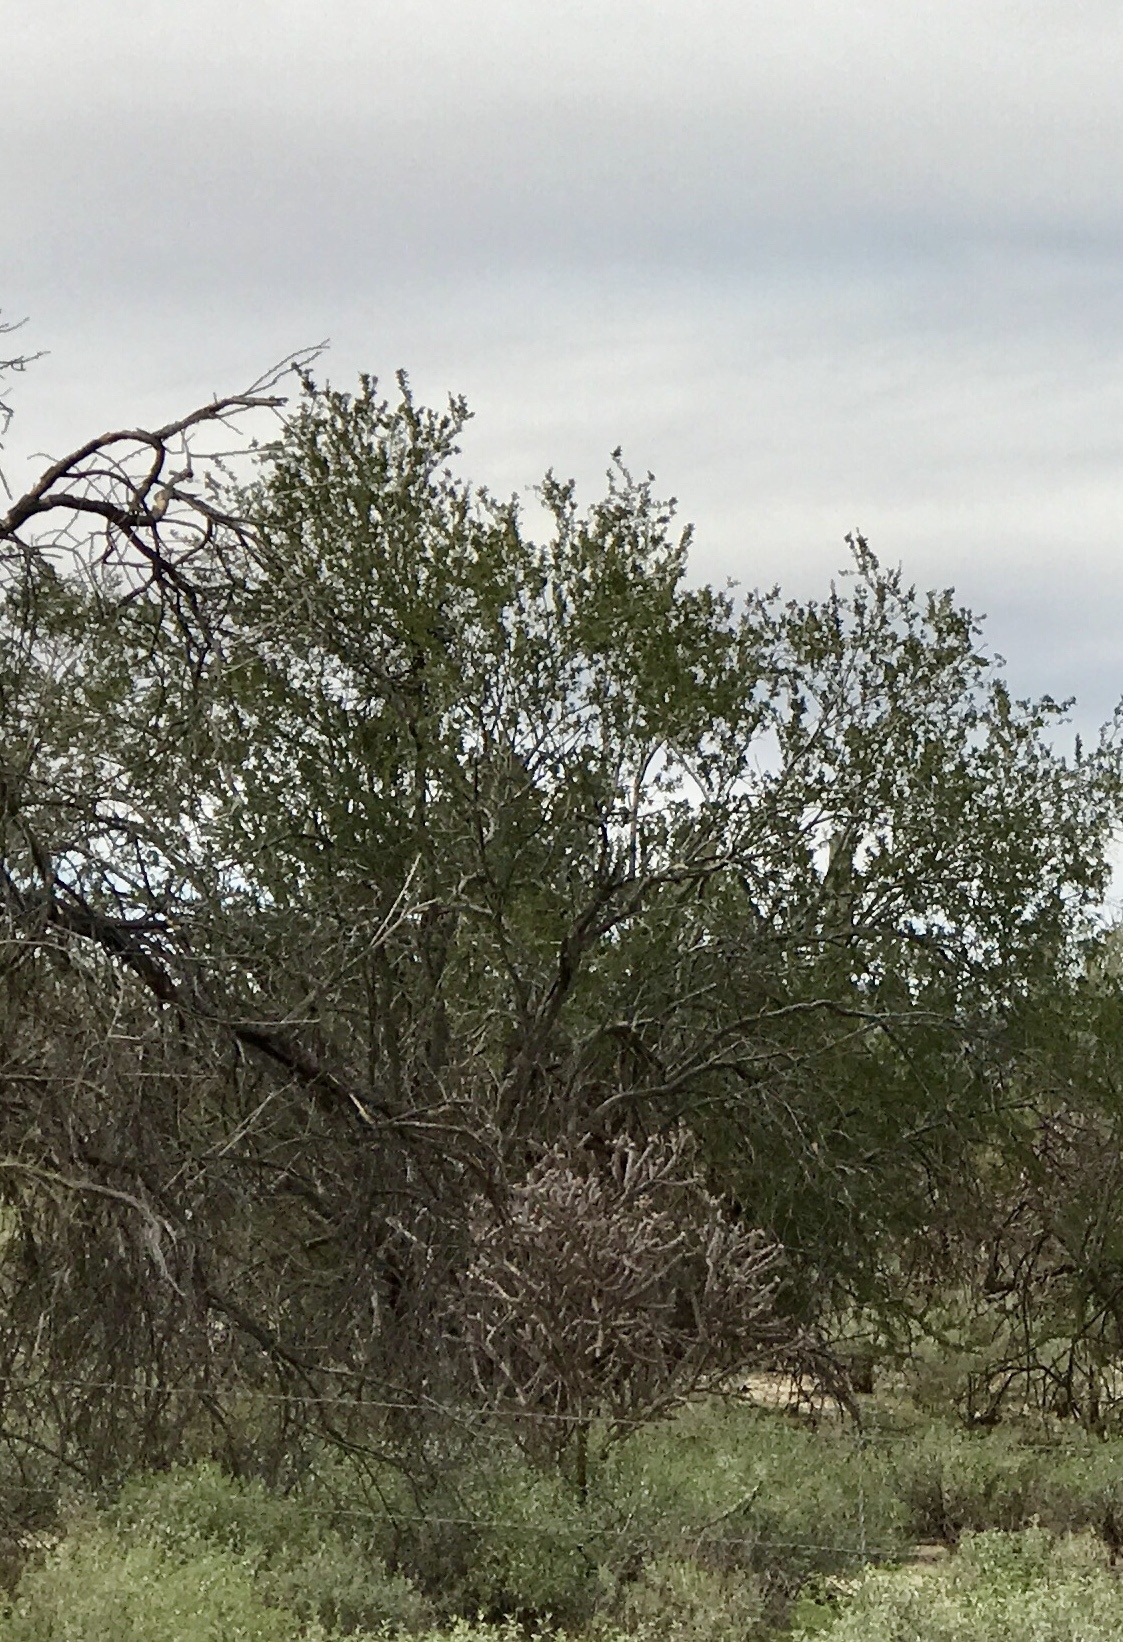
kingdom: Plantae
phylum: Tracheophyta
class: Magnoliopsida
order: Fabales
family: Fabaceae
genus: Olneya
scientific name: Olneya tesota
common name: Desert ironwood
